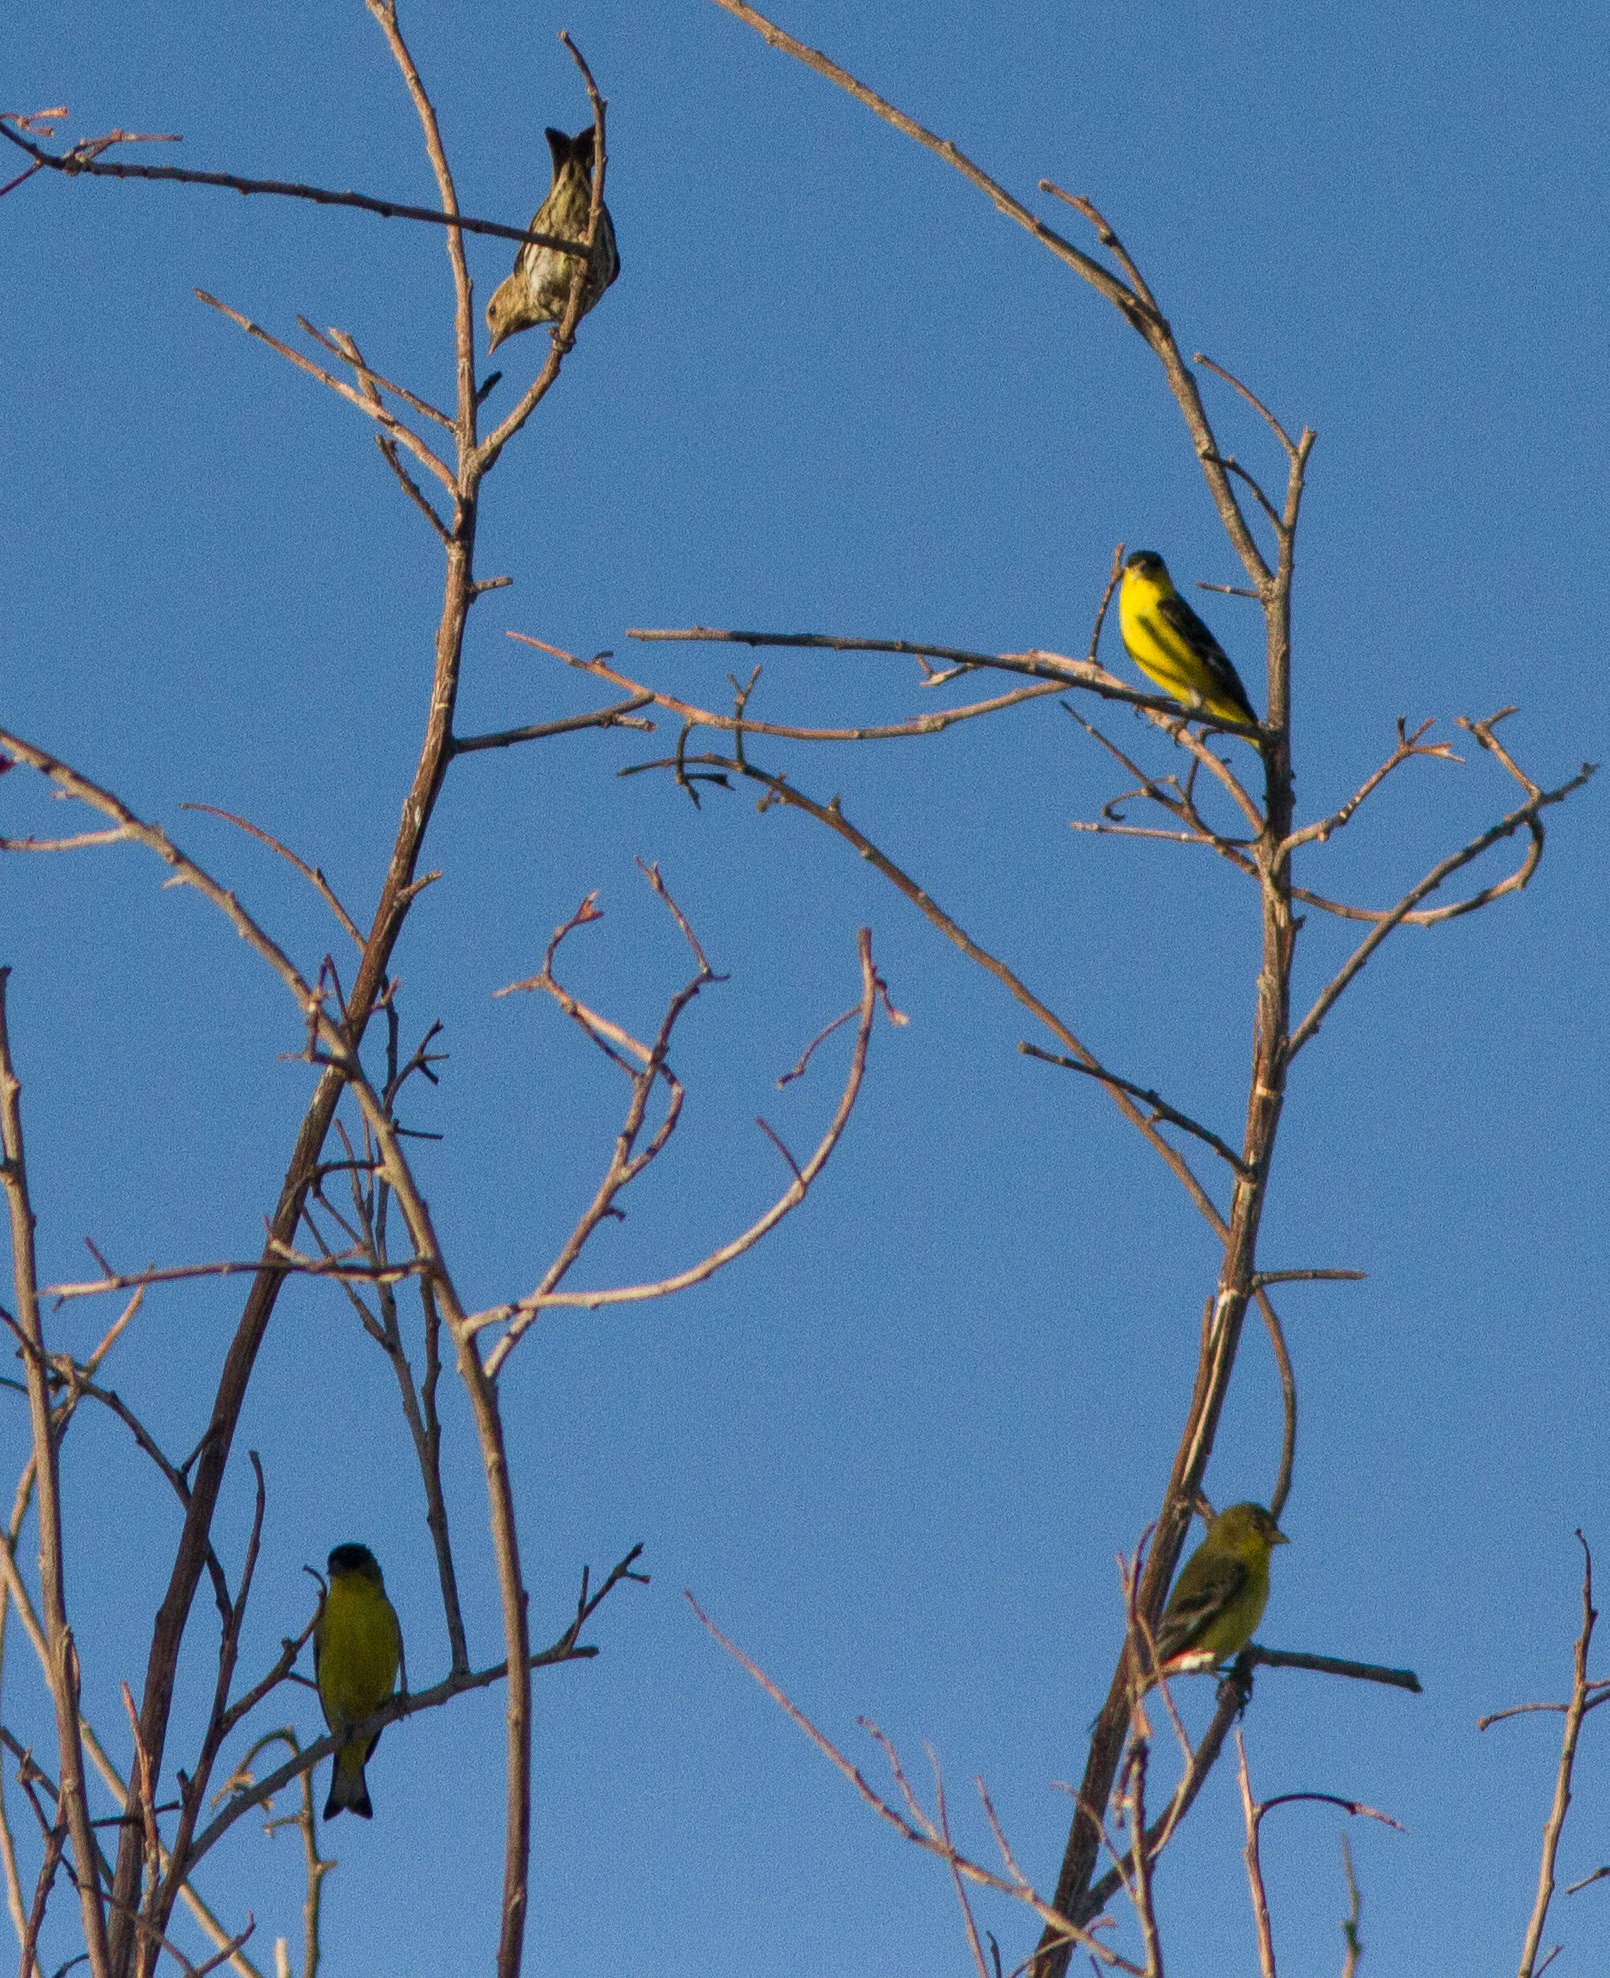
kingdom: Animalia
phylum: Chordata
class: Aves
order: Passeriformes
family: Fringillidae
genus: Spinus
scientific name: Spinus psaltria
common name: Lesser goldfinch
